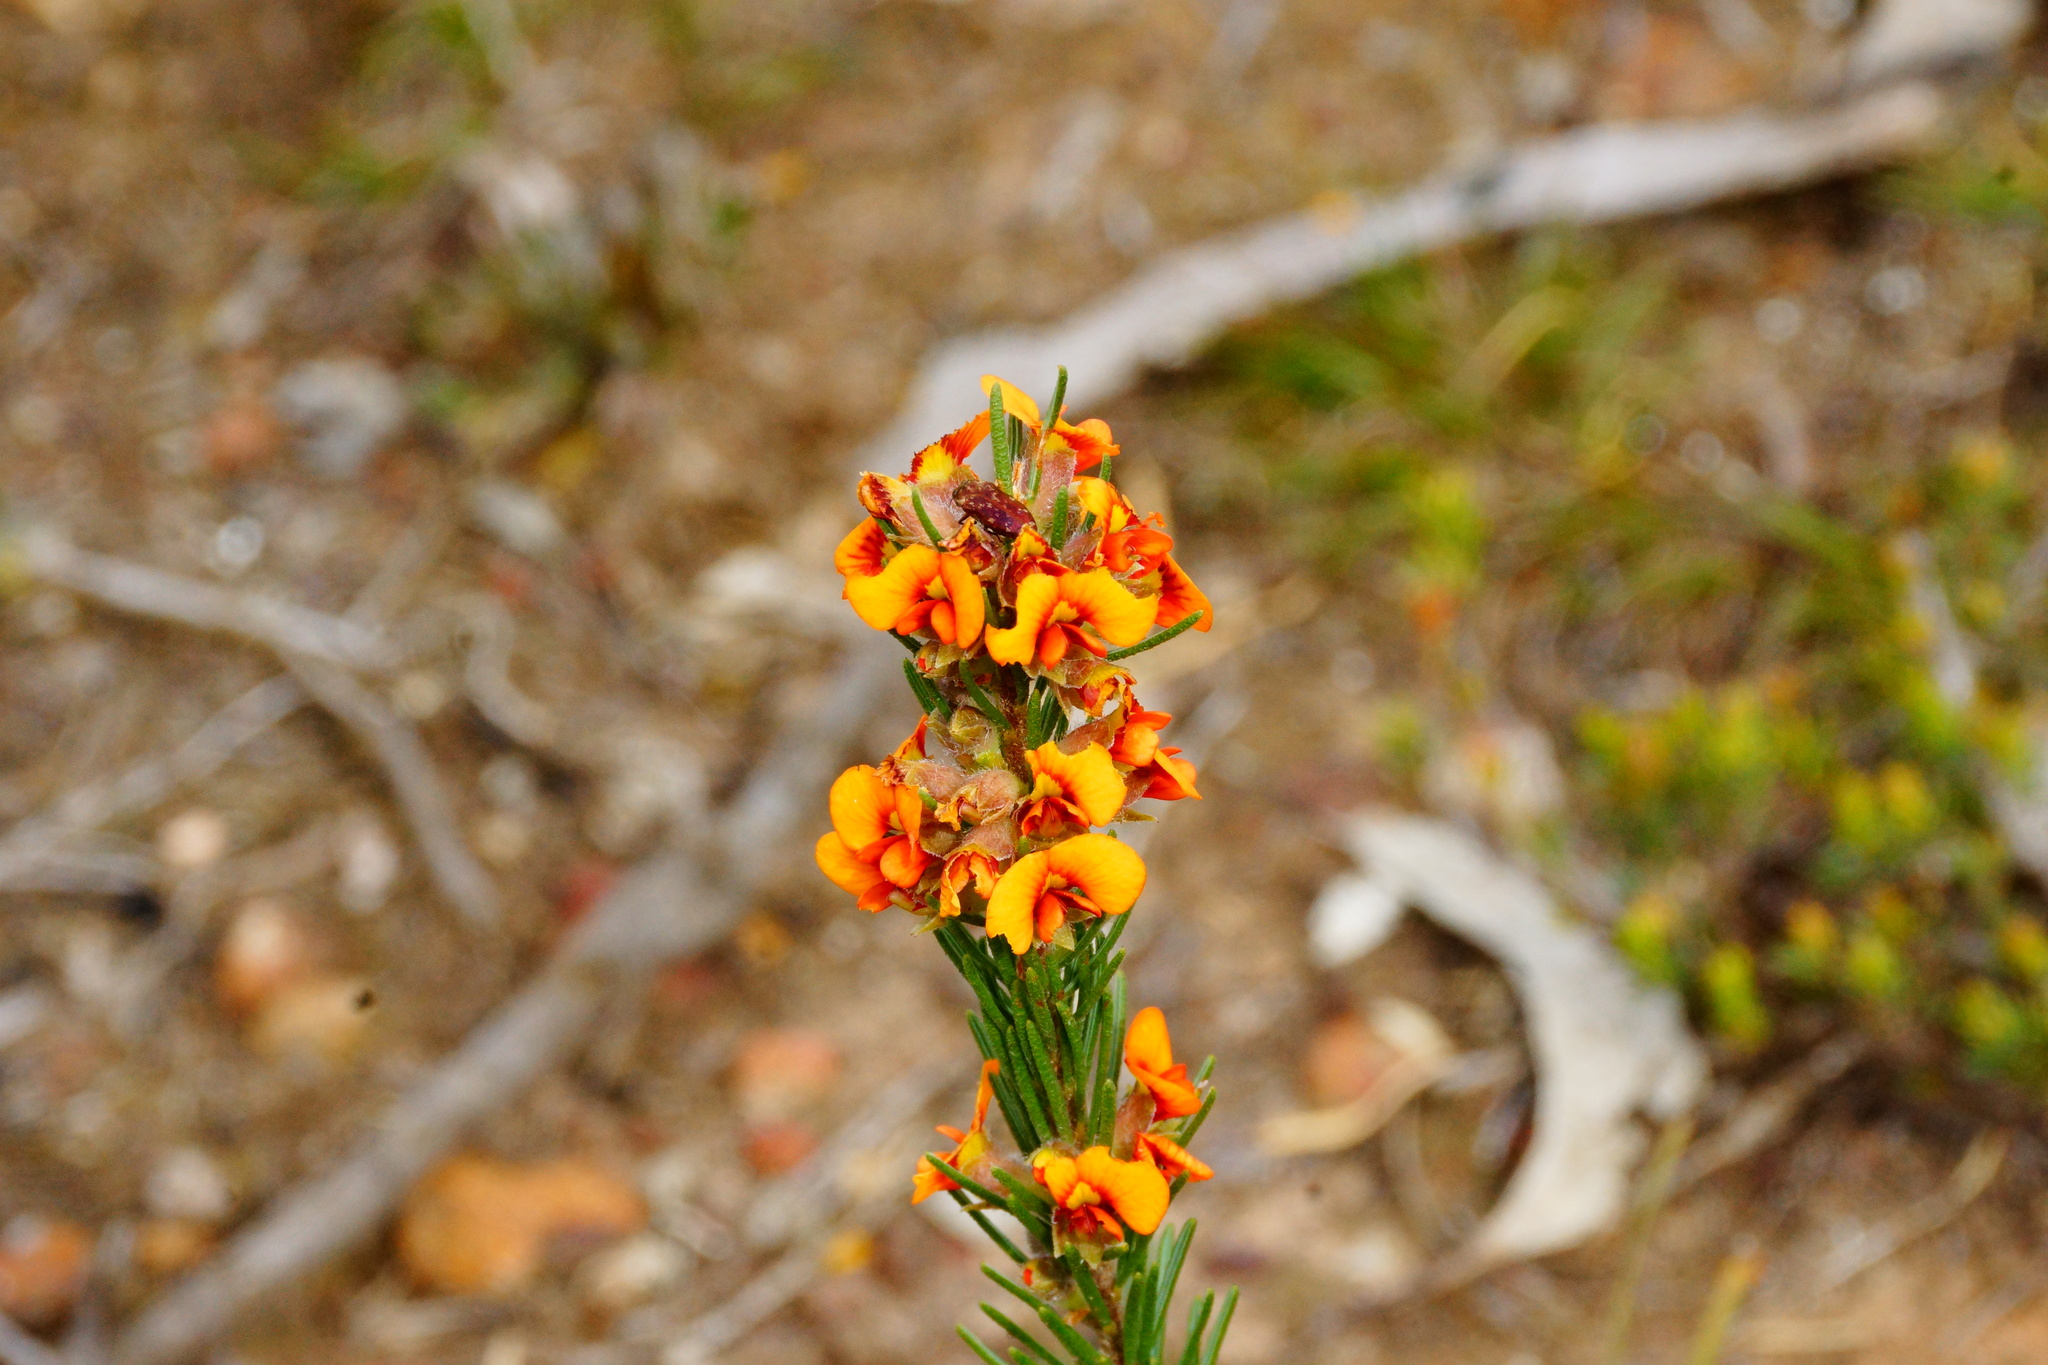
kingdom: Plantae
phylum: Tracheophyta
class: Magnoliopsida
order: Fabales
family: Fabaceae
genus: Dillwynia
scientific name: Dillwynia sericea
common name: Showy parrot-pea
